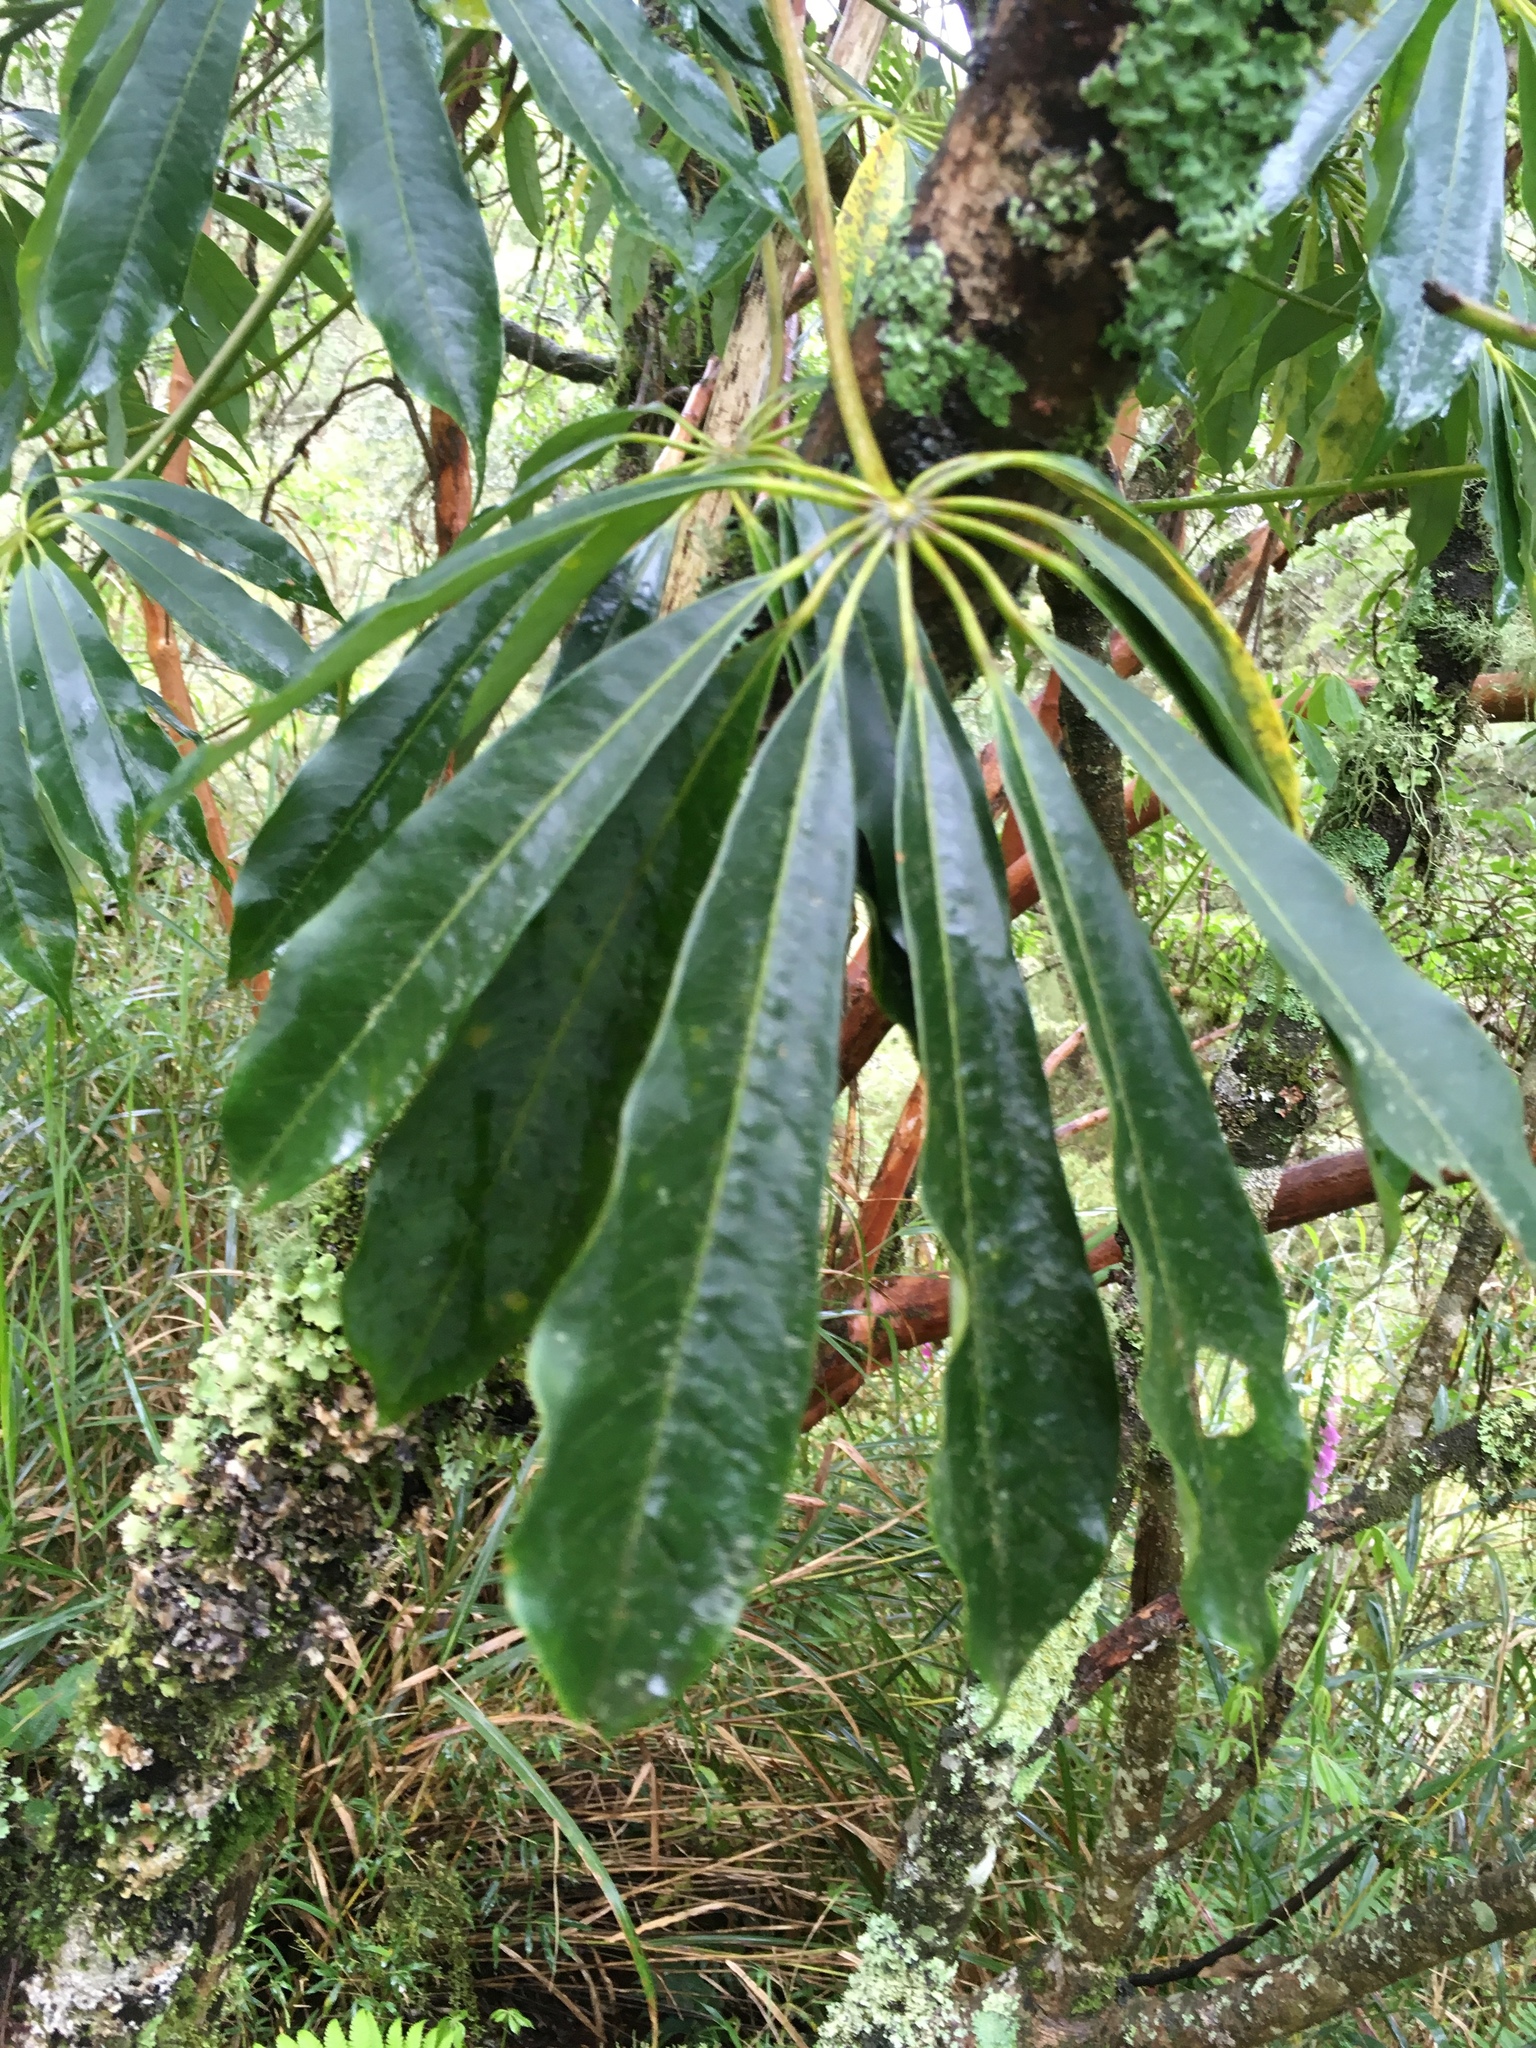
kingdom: Plantae
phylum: Tracheophyta
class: Magnoliopsida
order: Apiales
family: Araliaceae
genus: Heptapleurum
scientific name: Heptapleurum taiwanianum
